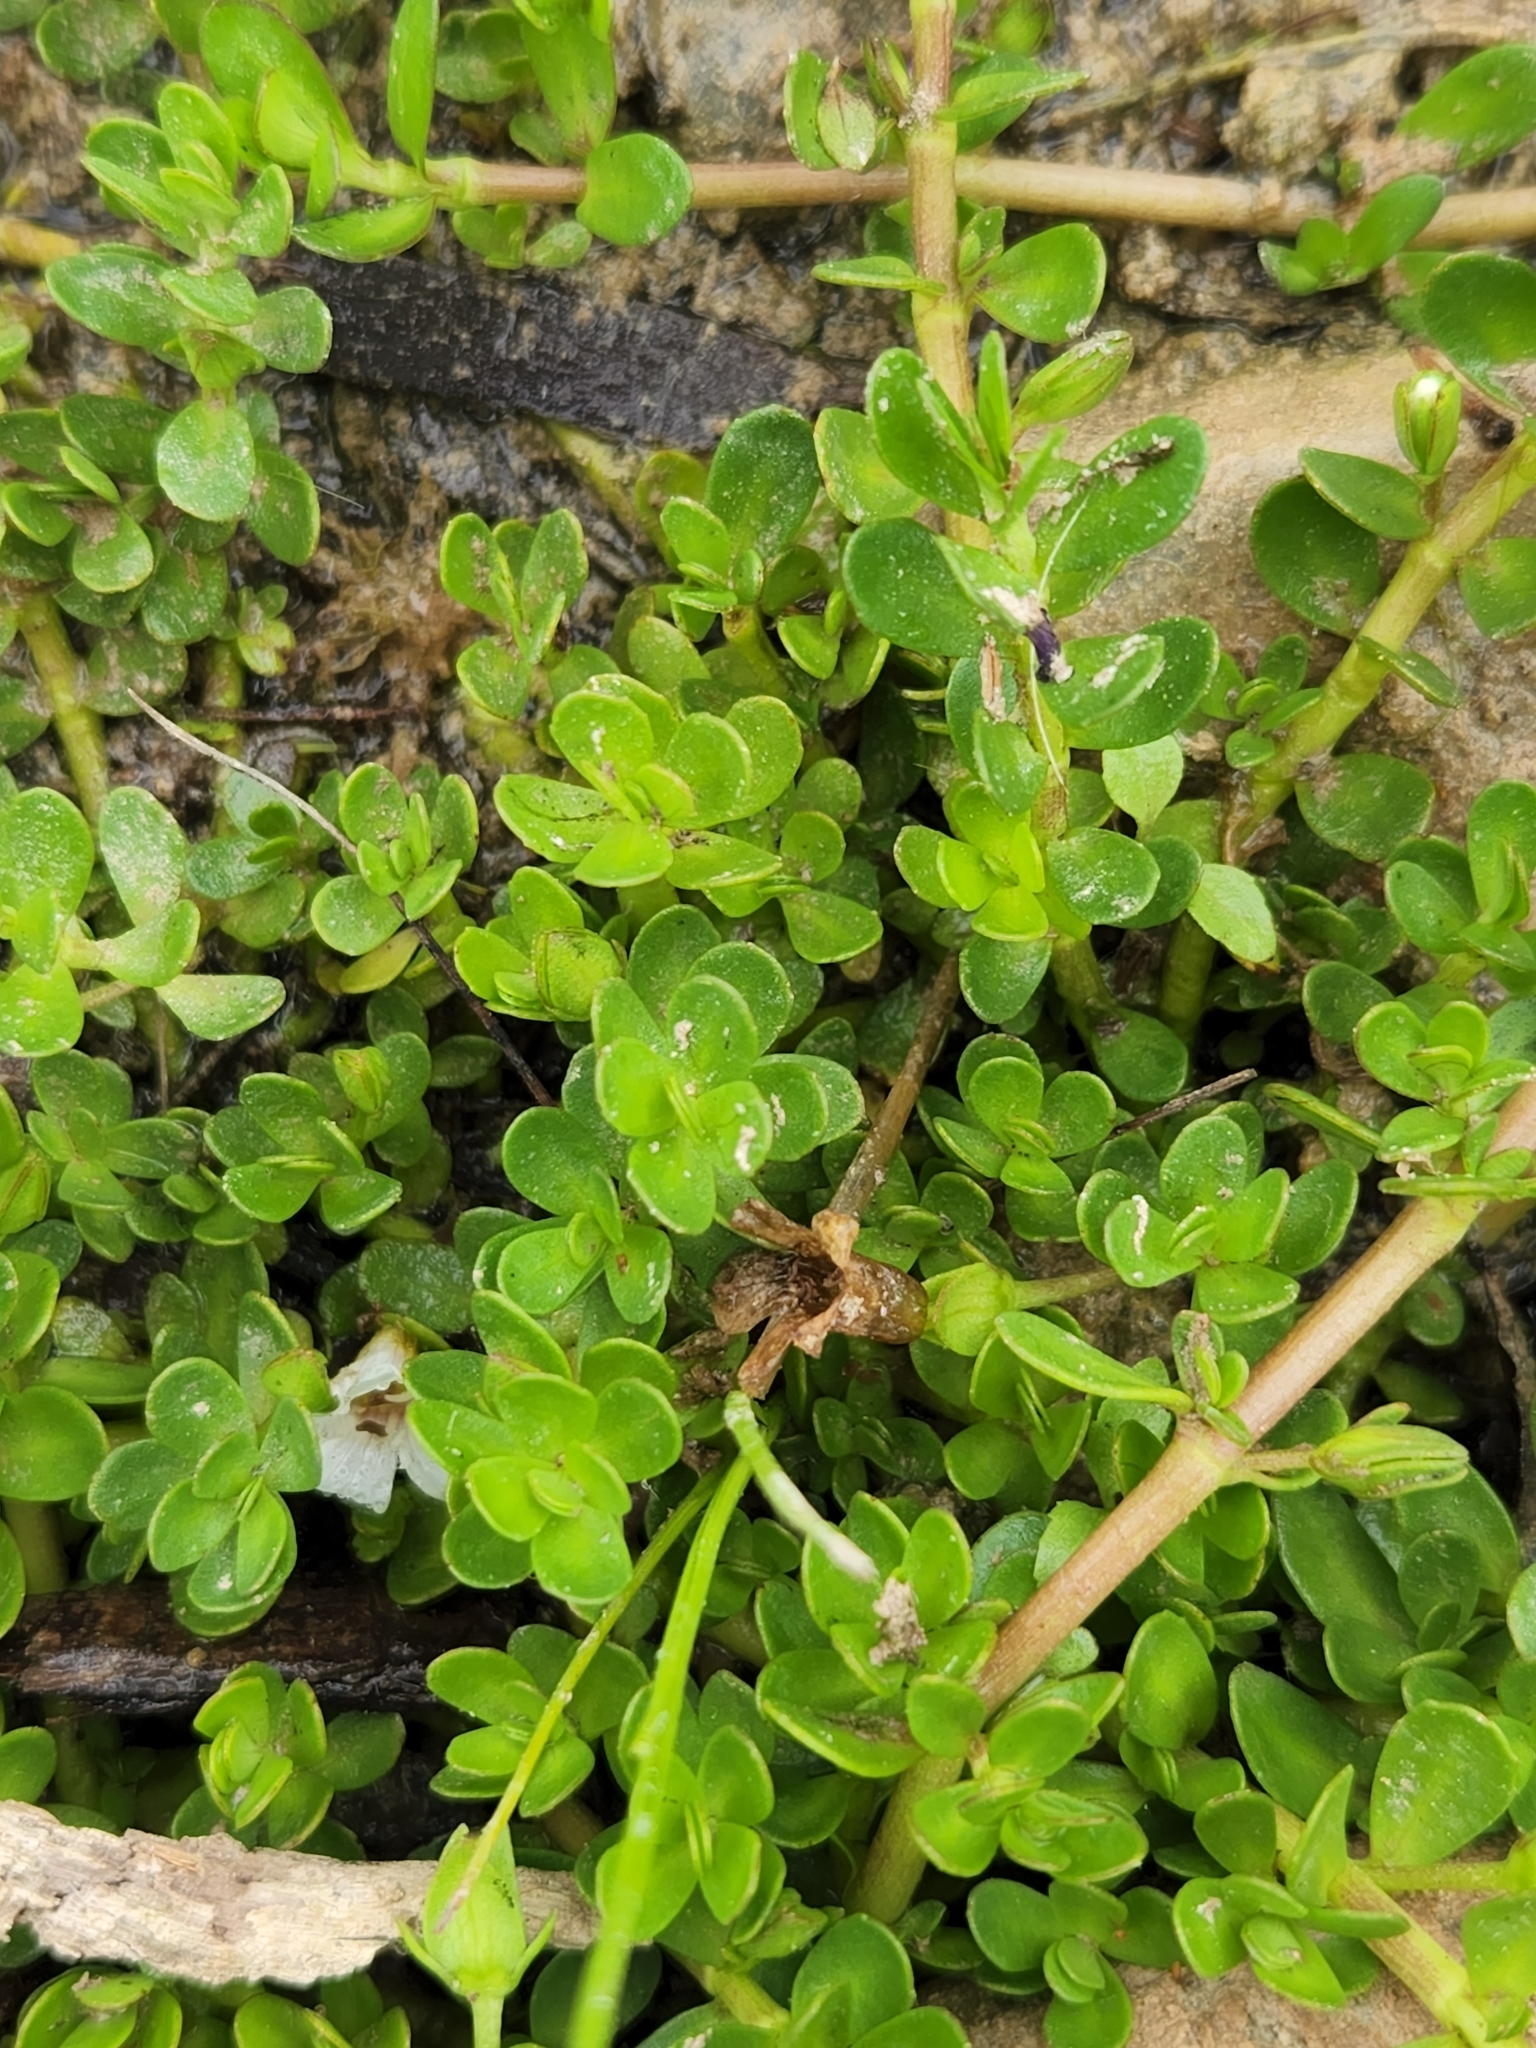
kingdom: Plantae
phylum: Tracheophyta
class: Magnoliopsida
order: Lamiales
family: Plantaginaceae
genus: Bacopa
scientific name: Bacopa monnieri
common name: Indian-pennywort
